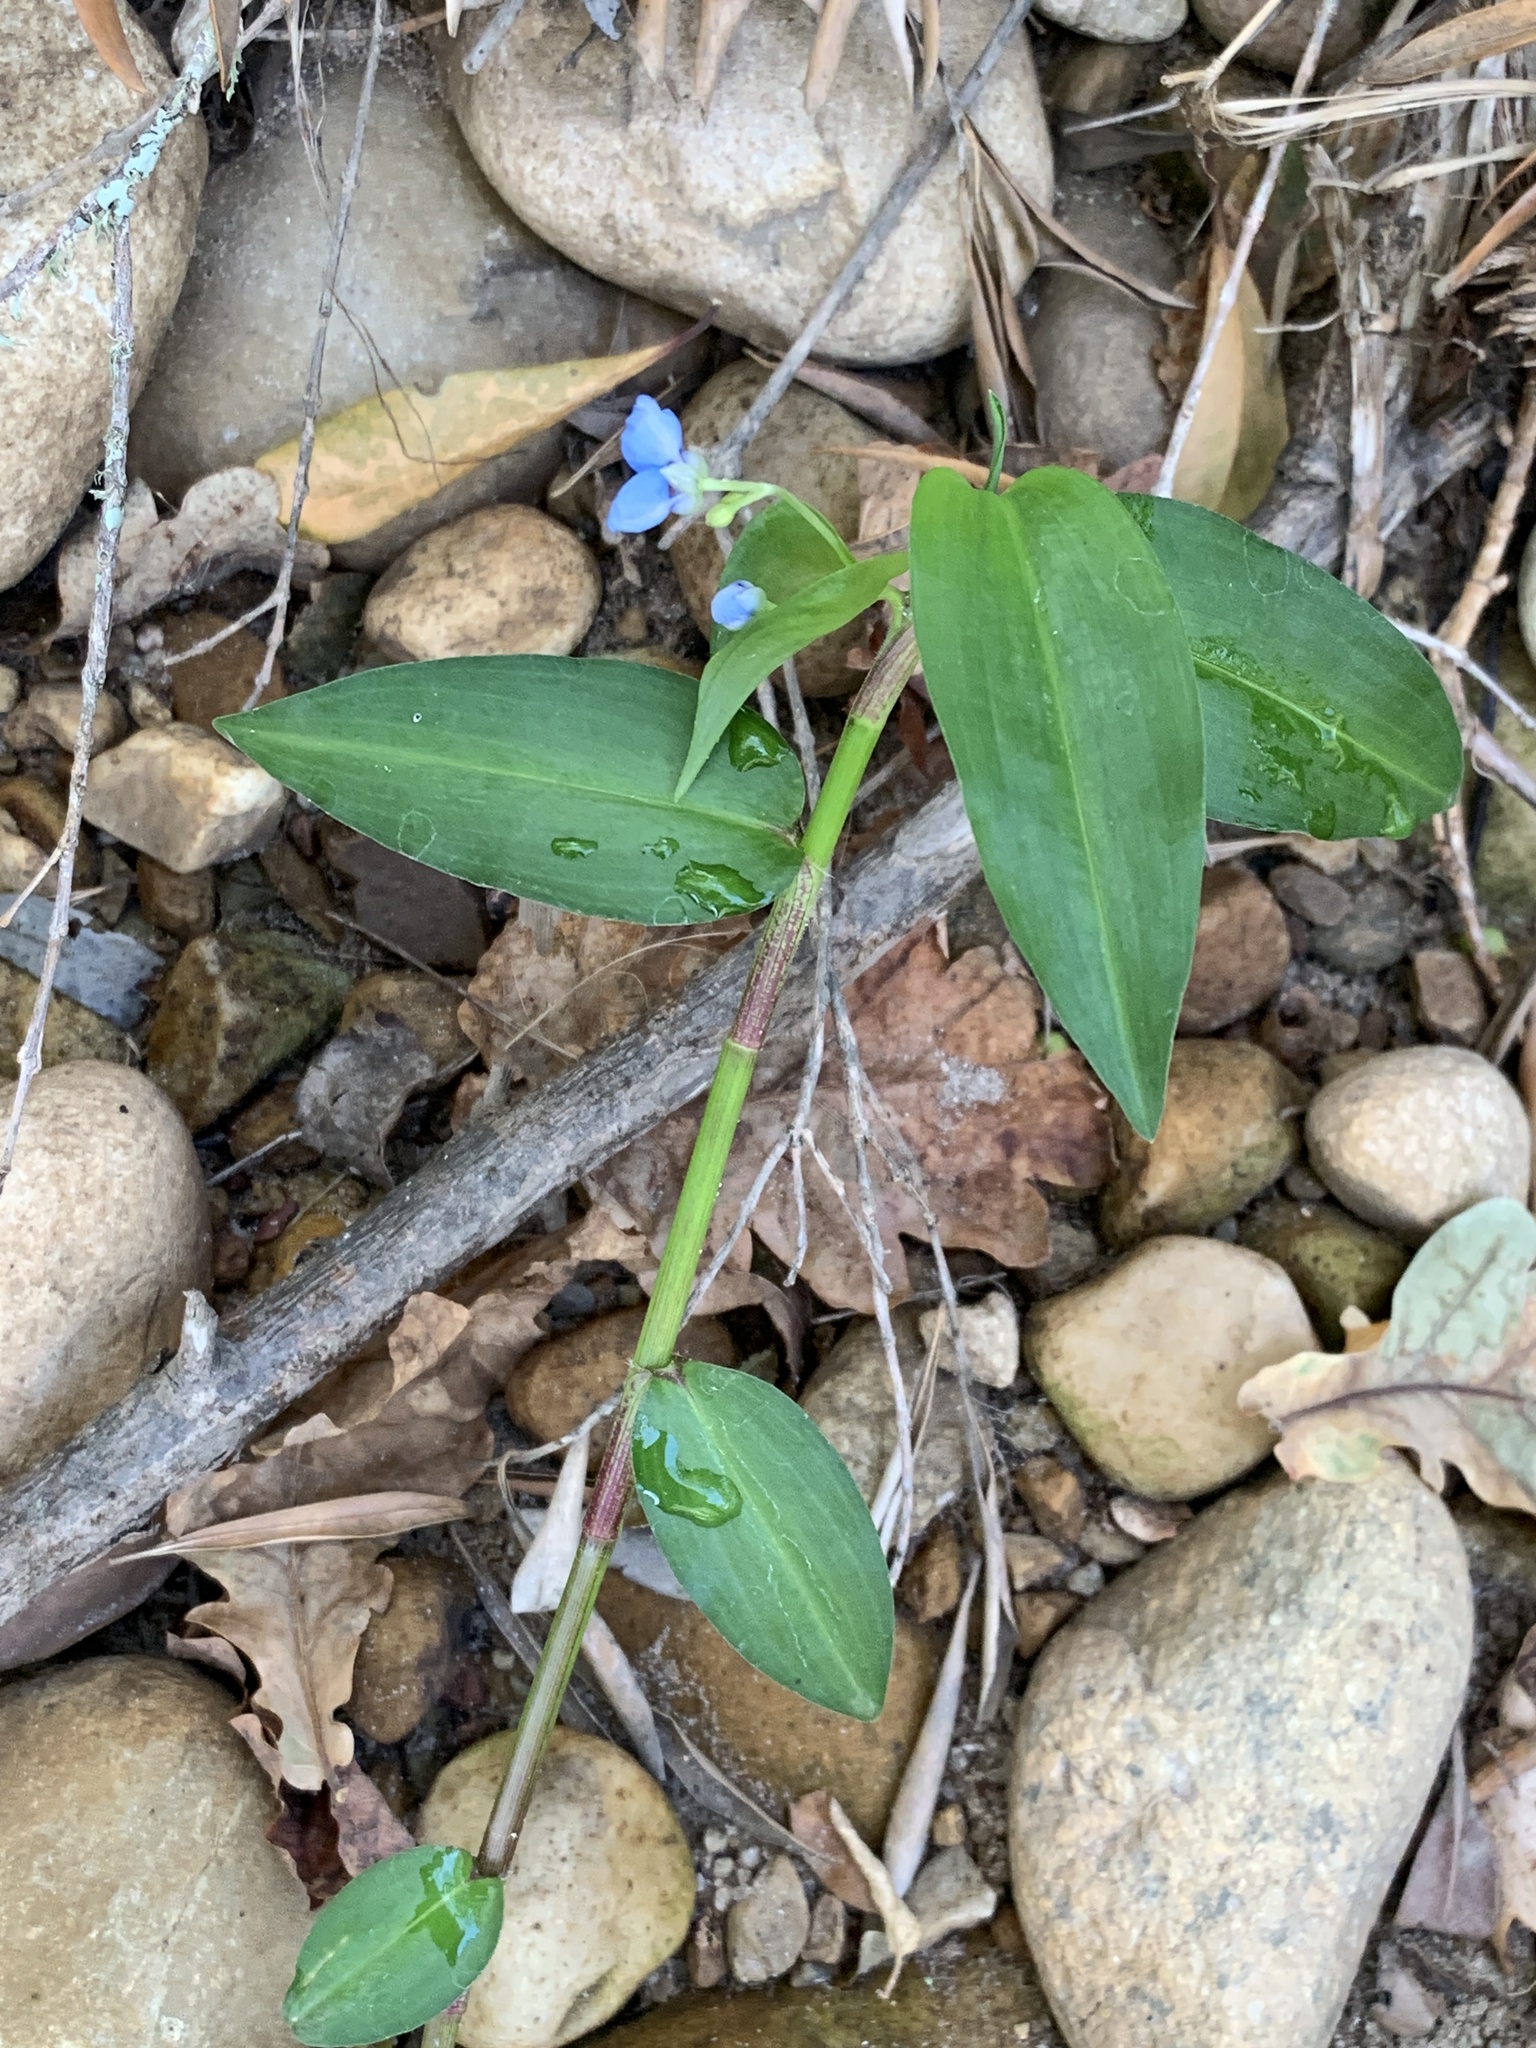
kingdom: Plantae
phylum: Tracheophyta
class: Liliopsida
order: Commelinales
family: Commelinaceae
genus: Commelina
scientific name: Commelina diffusa
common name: Climbing dayflower
